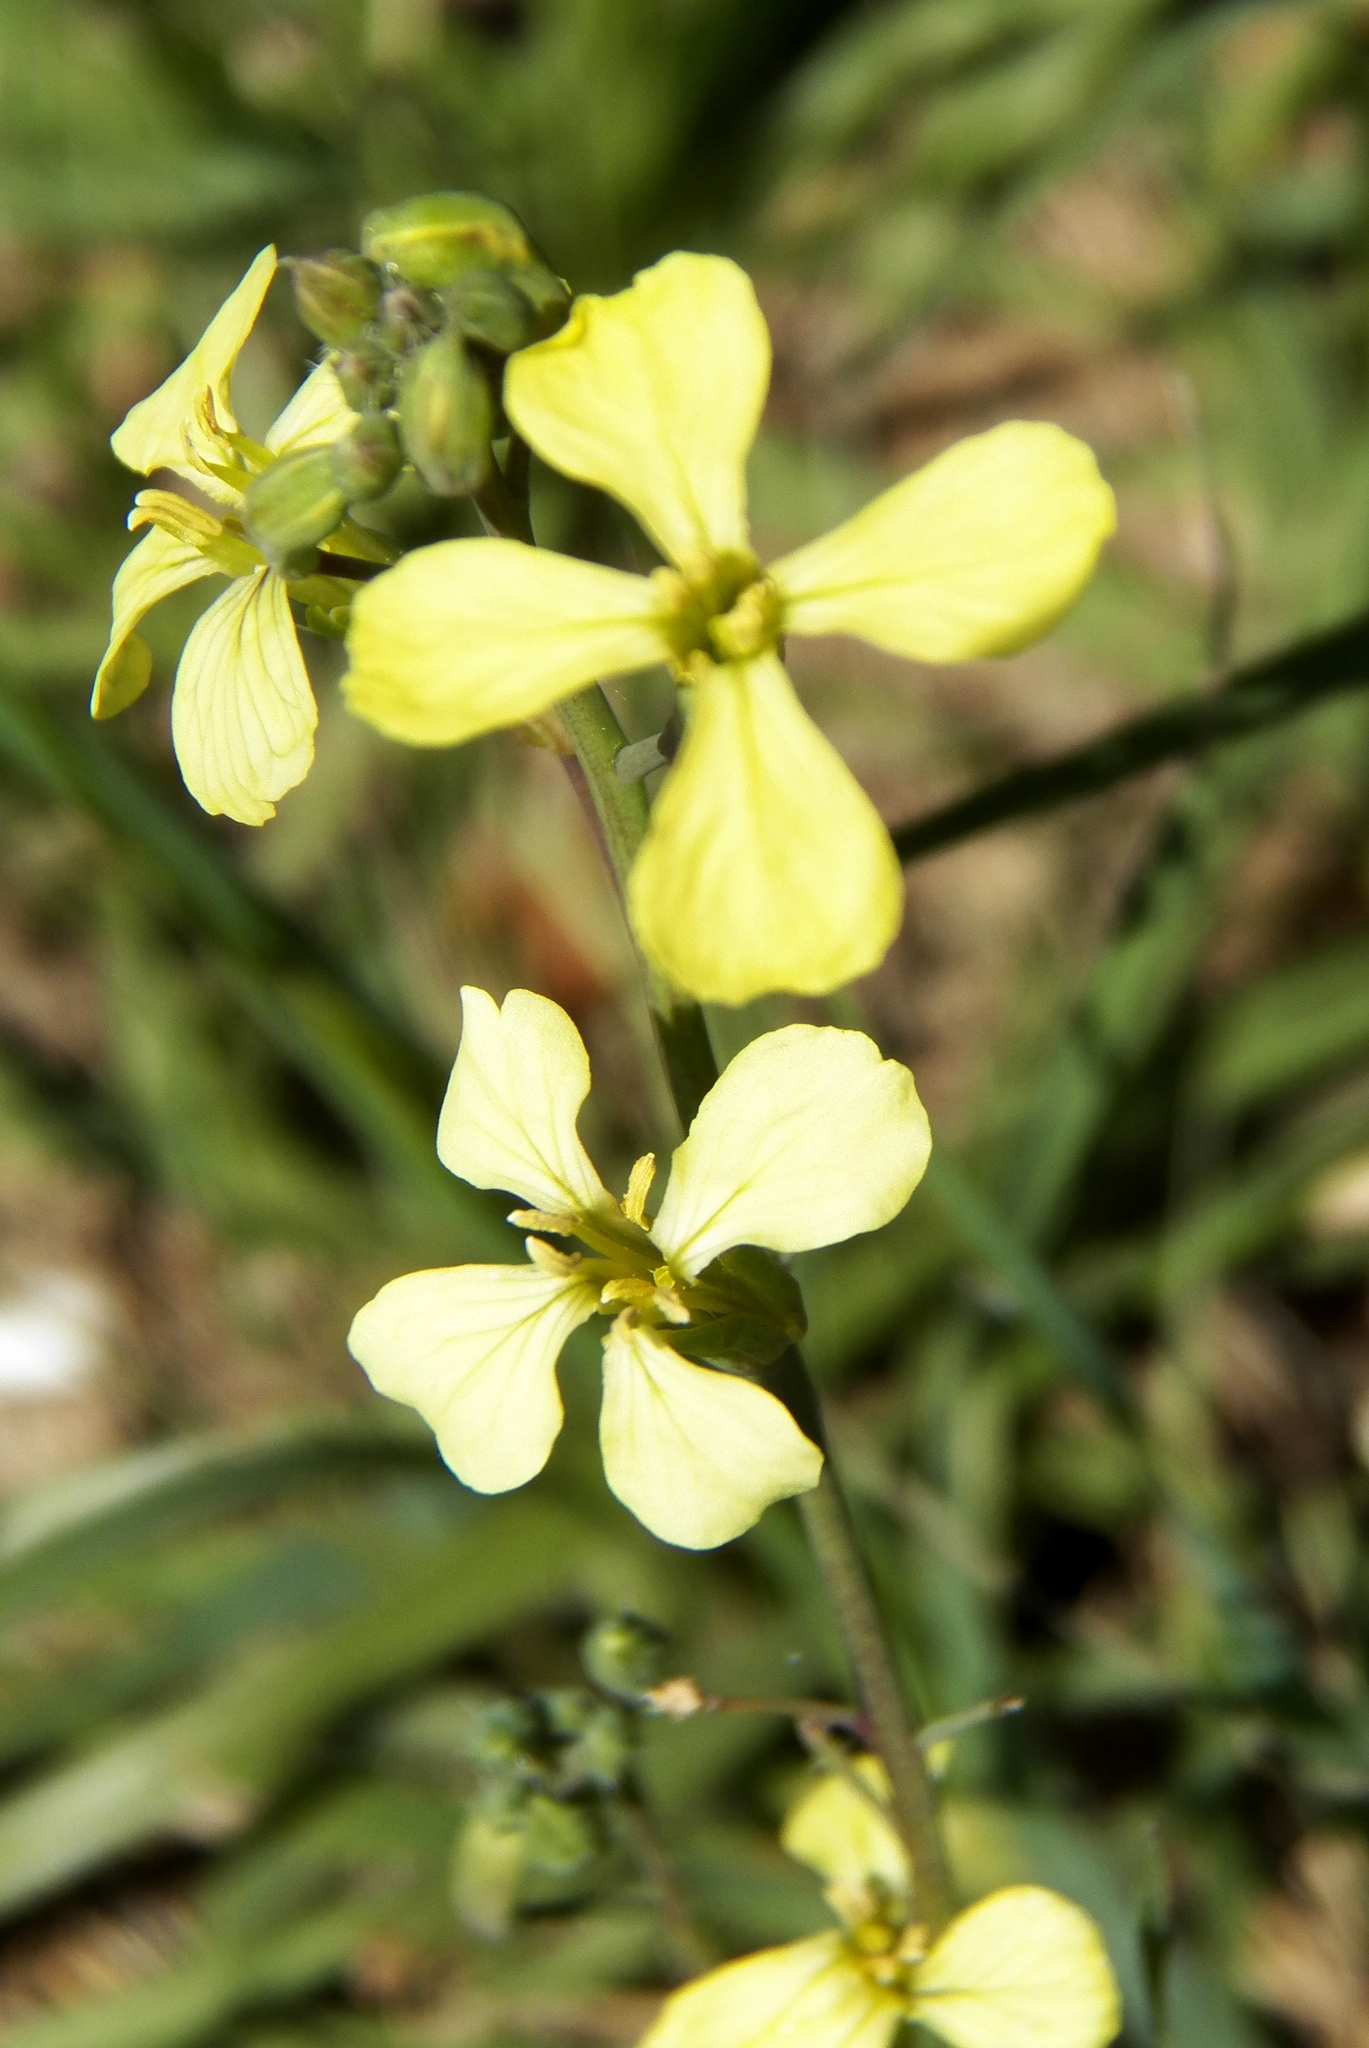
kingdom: Plantae
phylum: Tracheophyta
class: Magnoliopsida
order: Brassicales
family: Brassicaceae
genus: Raphanus
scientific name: Raphanus raphanistrum
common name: Wild radish
